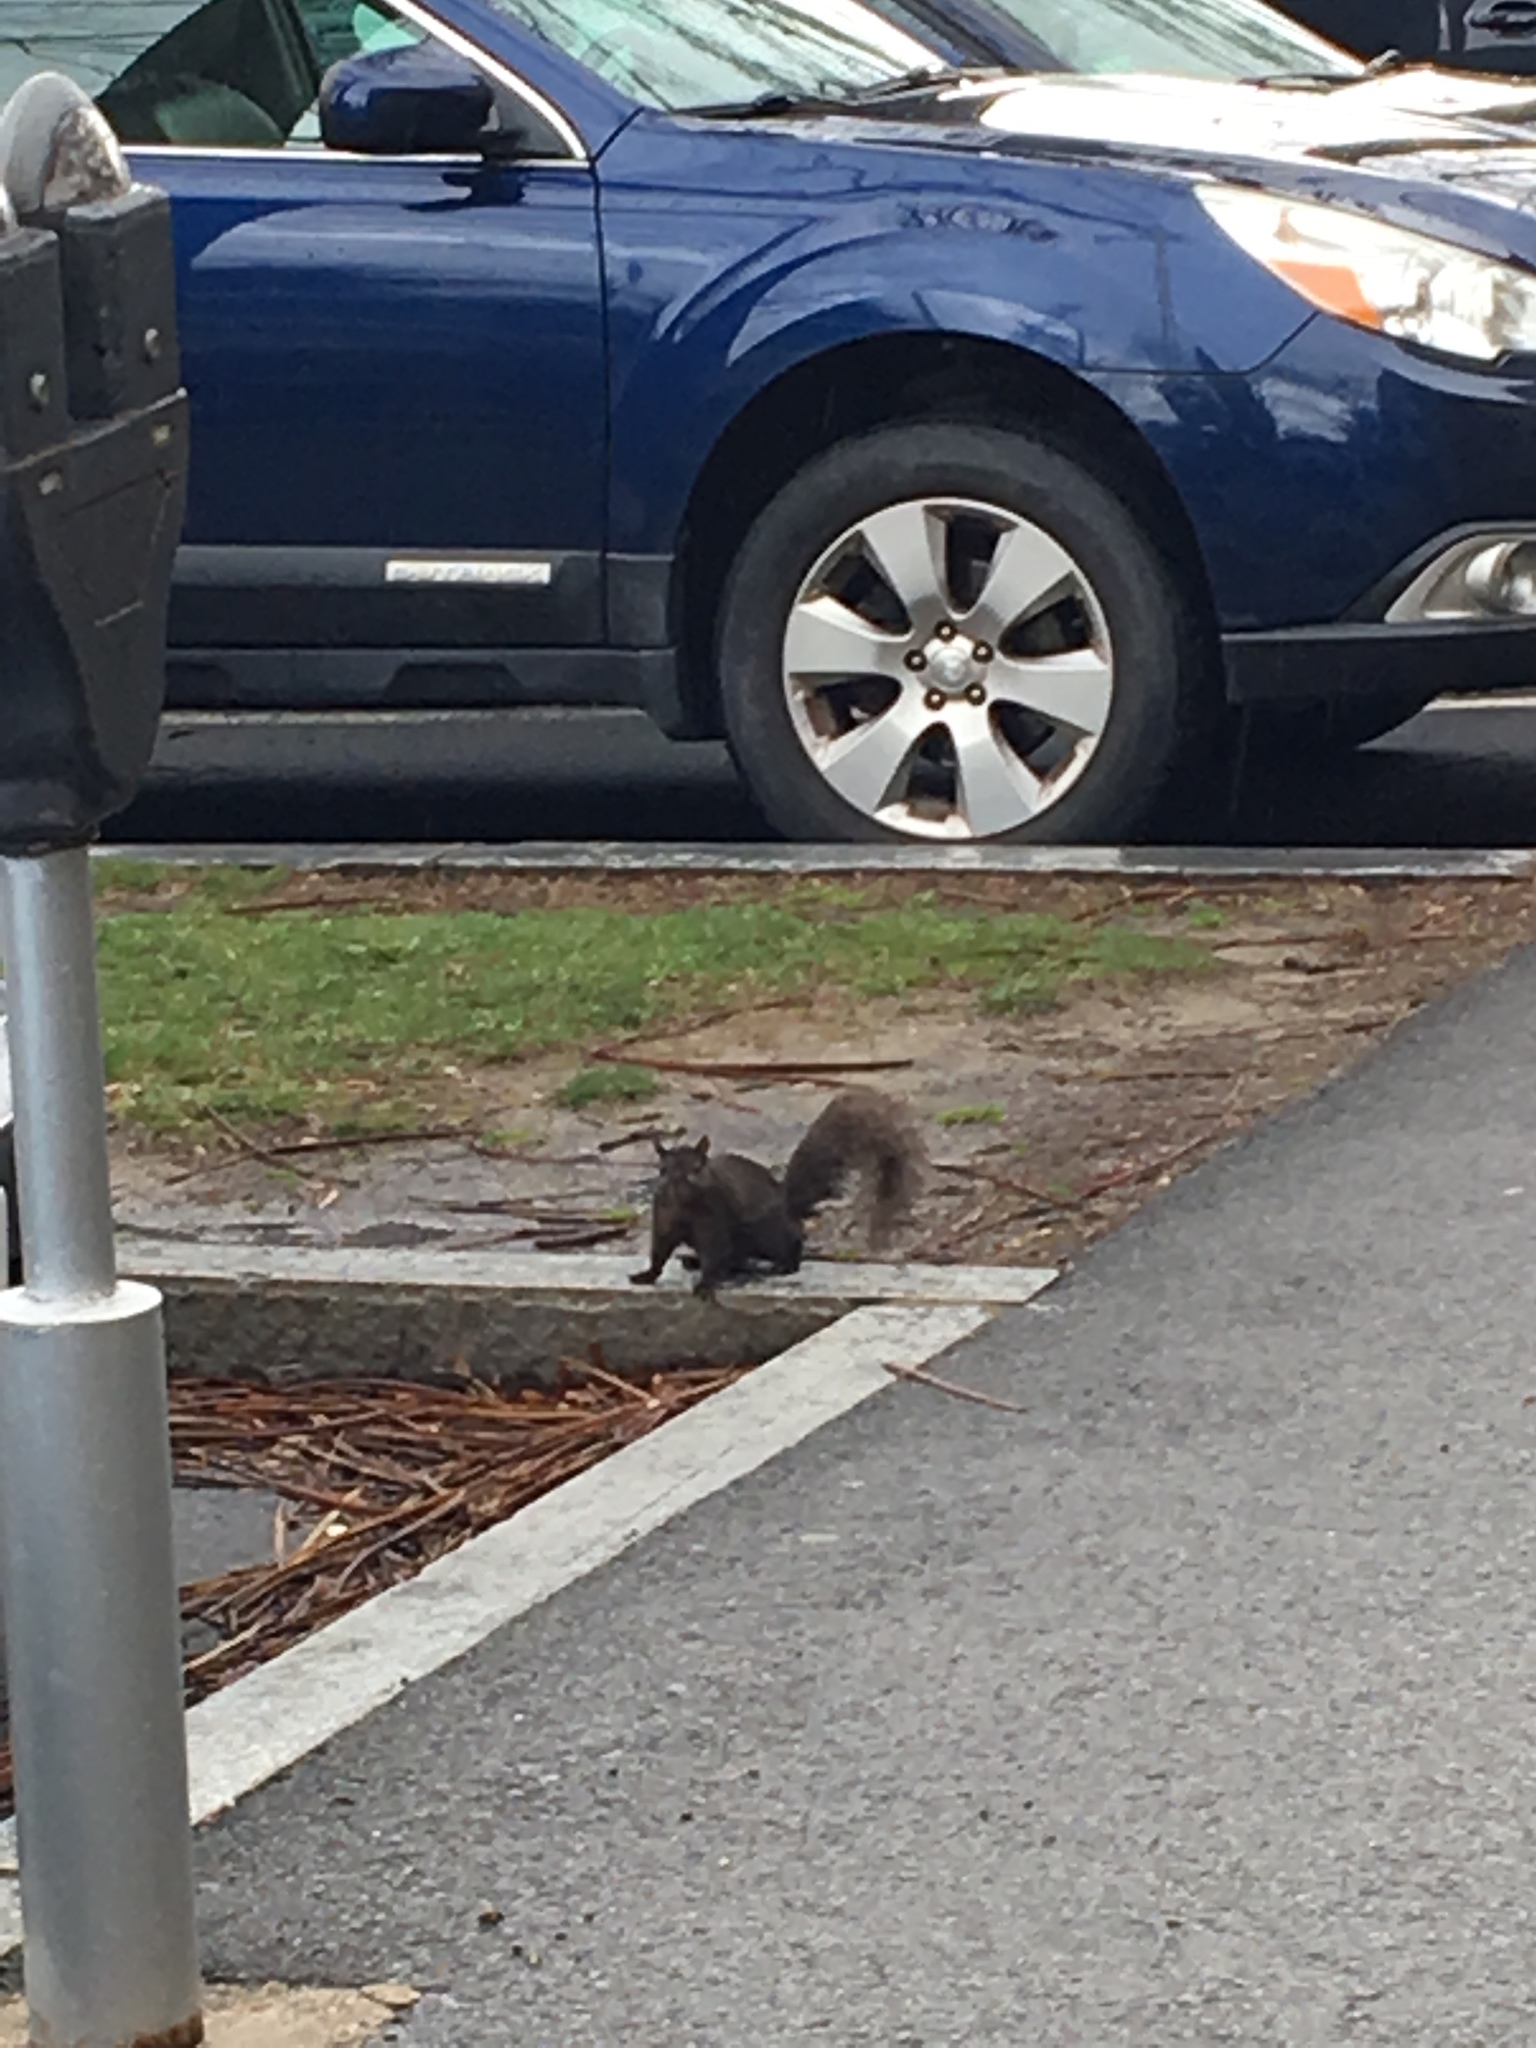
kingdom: Animalia
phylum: Chordata
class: Mammalia
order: Rodentia
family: Sciuridae
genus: Sciurus
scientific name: Sciurus carolinensis
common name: Eastern gray squirrel
